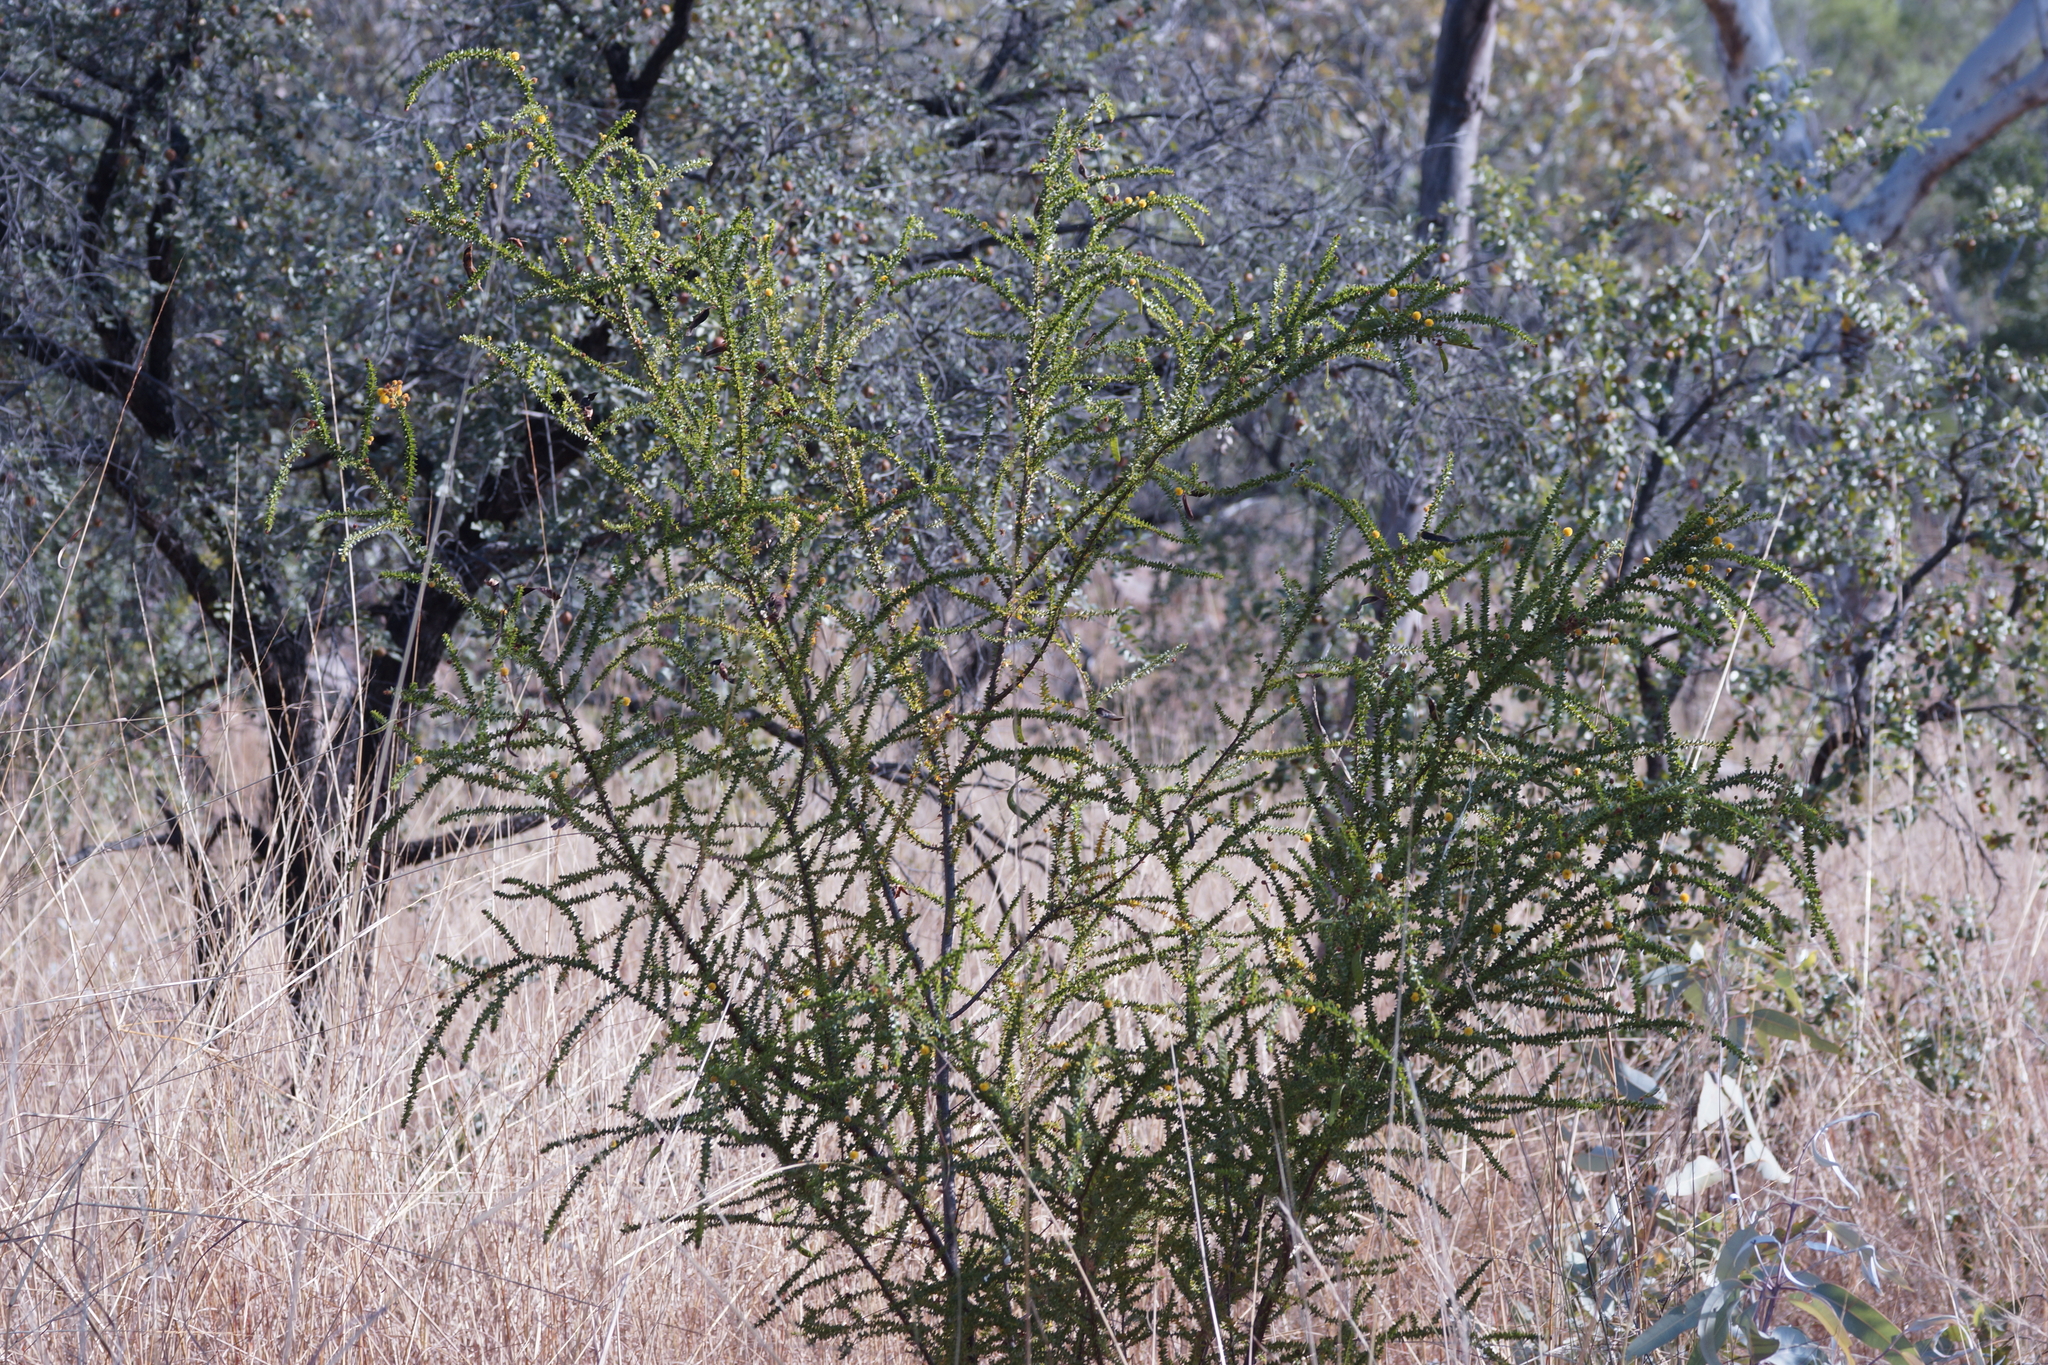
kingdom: Plantae
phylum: Tracheophyta
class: Magnoliopsida
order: Fabales
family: Fabaceae
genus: Acacia
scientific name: Acacia deltoidea
